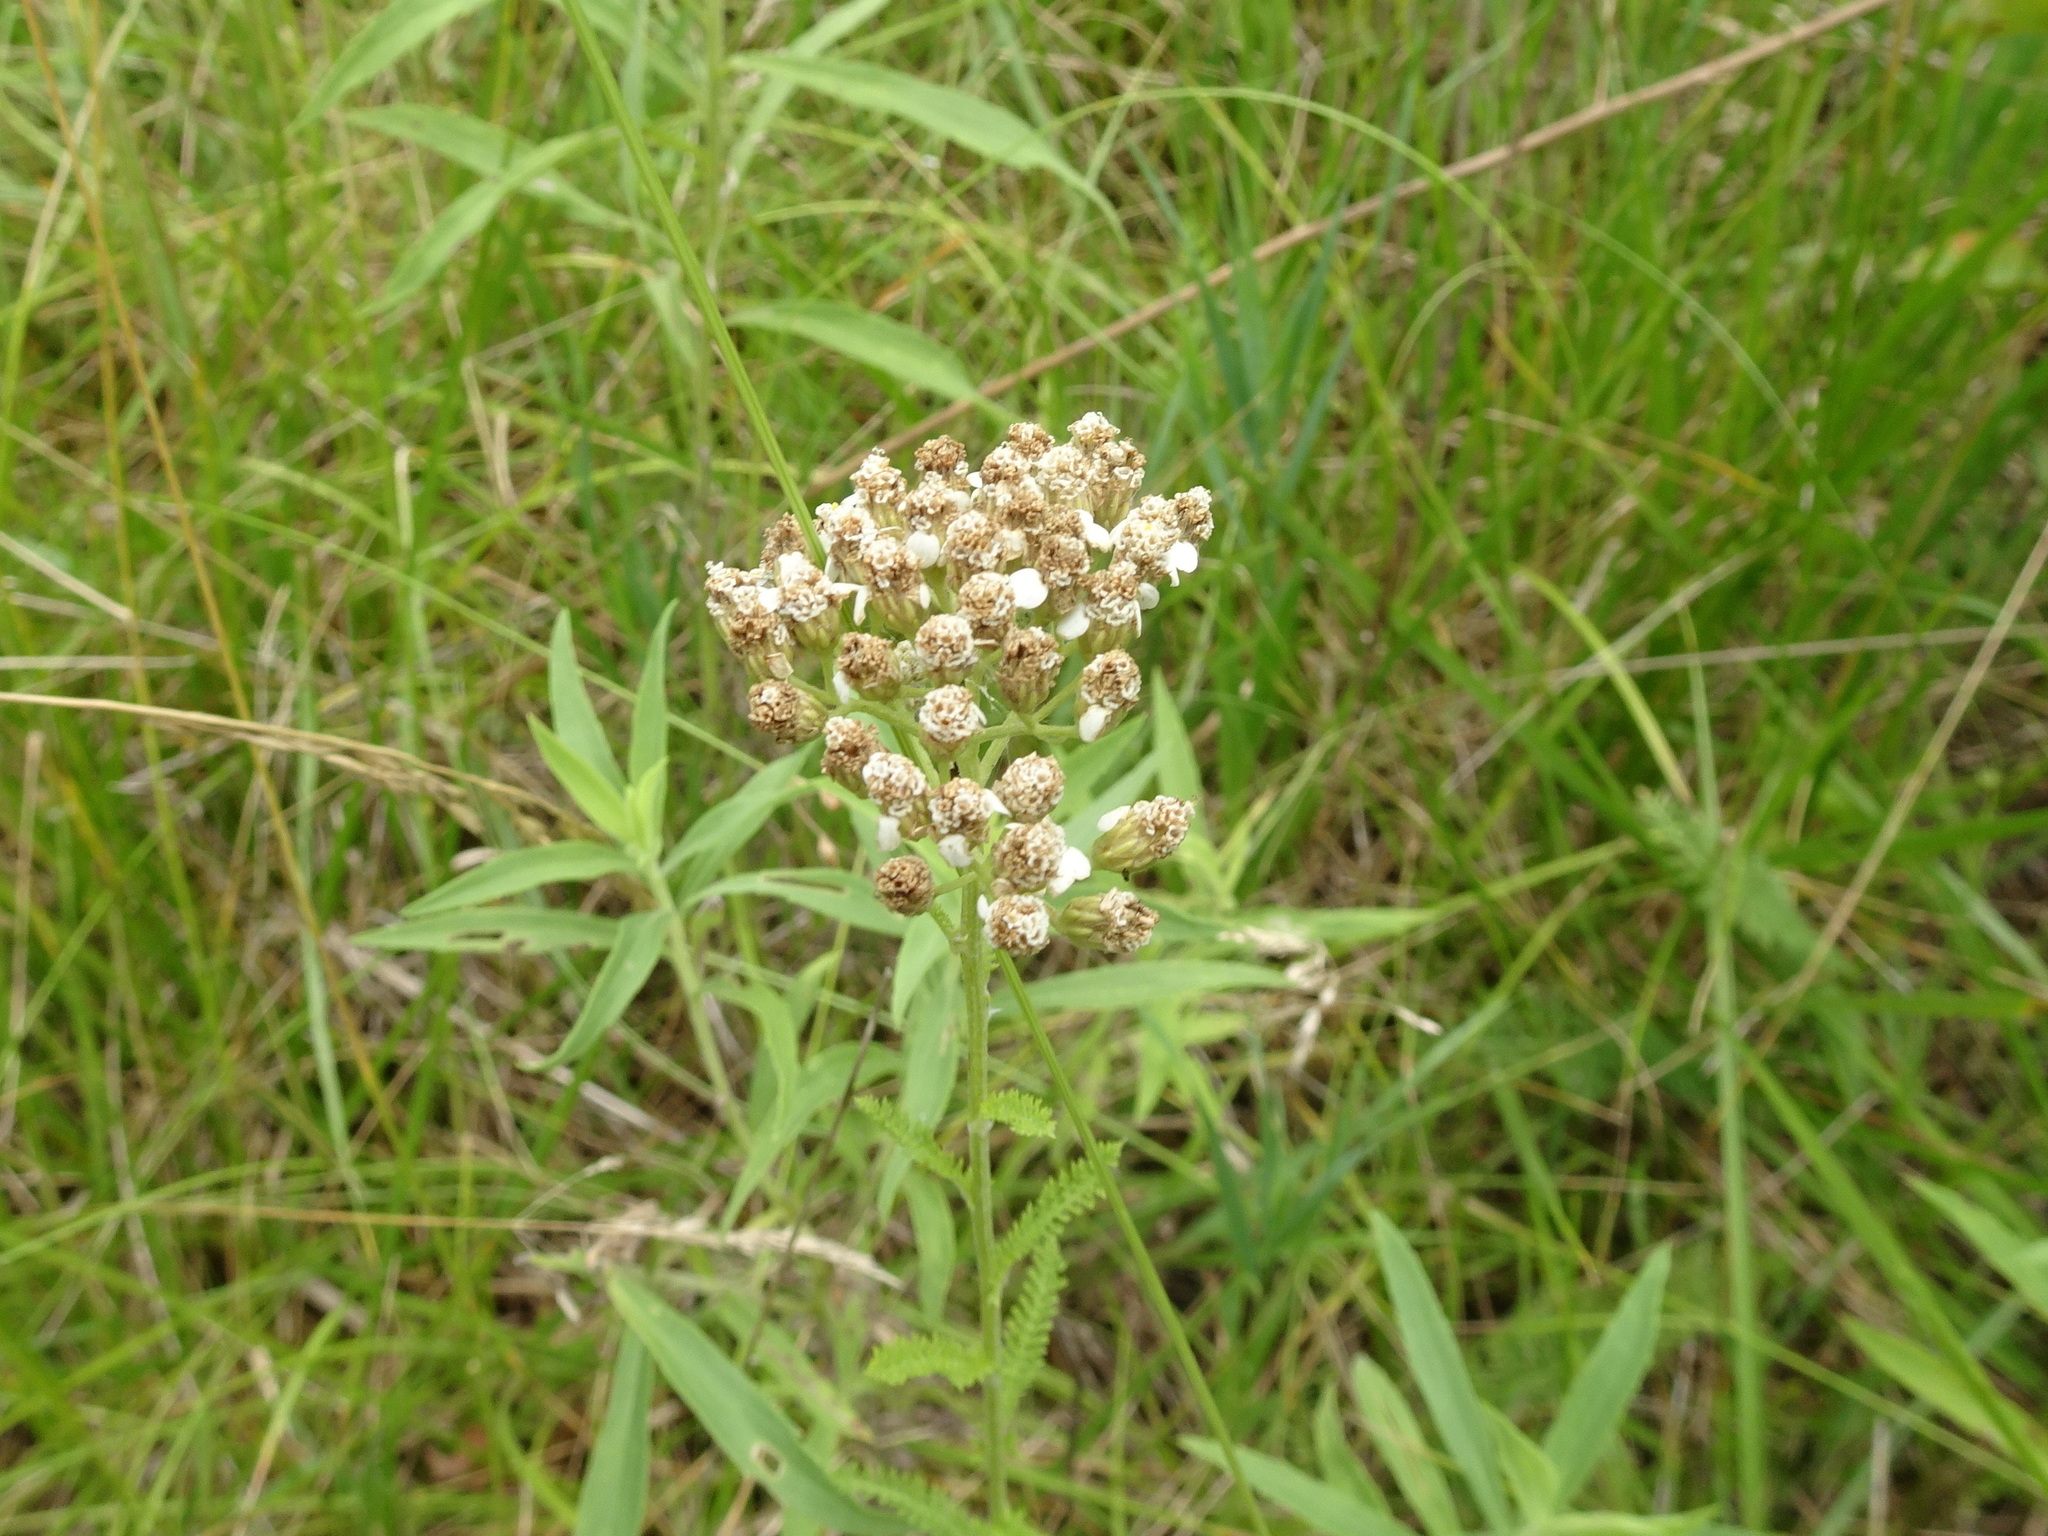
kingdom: Plantae
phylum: Tracheophyta
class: Magnoliopsida
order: Asterales
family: Asteraceae
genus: Achillea
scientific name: Achillea millefolium
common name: Yarrow
